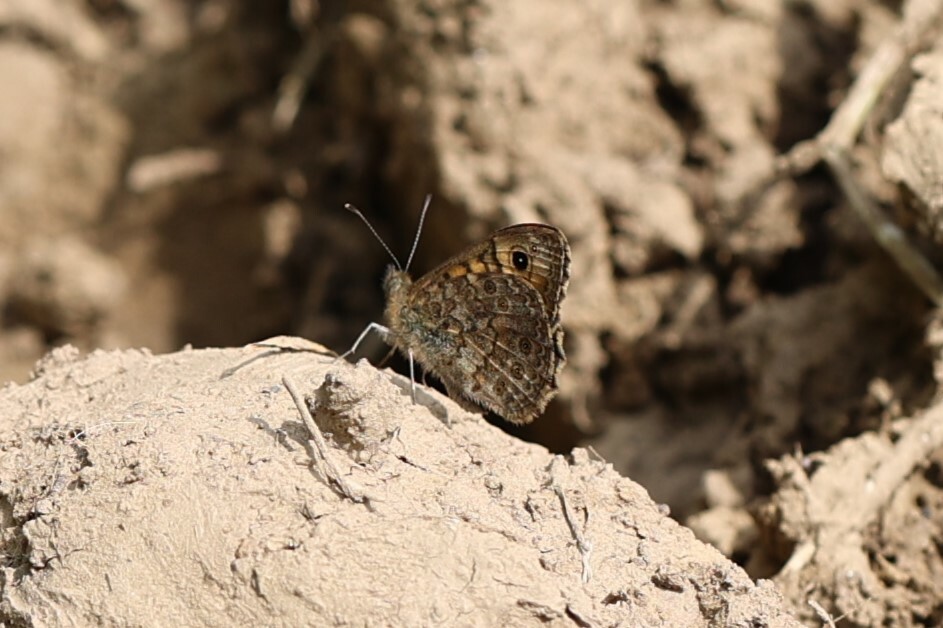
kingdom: Animalia
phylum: Arthropoda
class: Insecta
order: Lepidoptera
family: Nymphalidae
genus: Pararge
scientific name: Pararge Lasiommata megera
